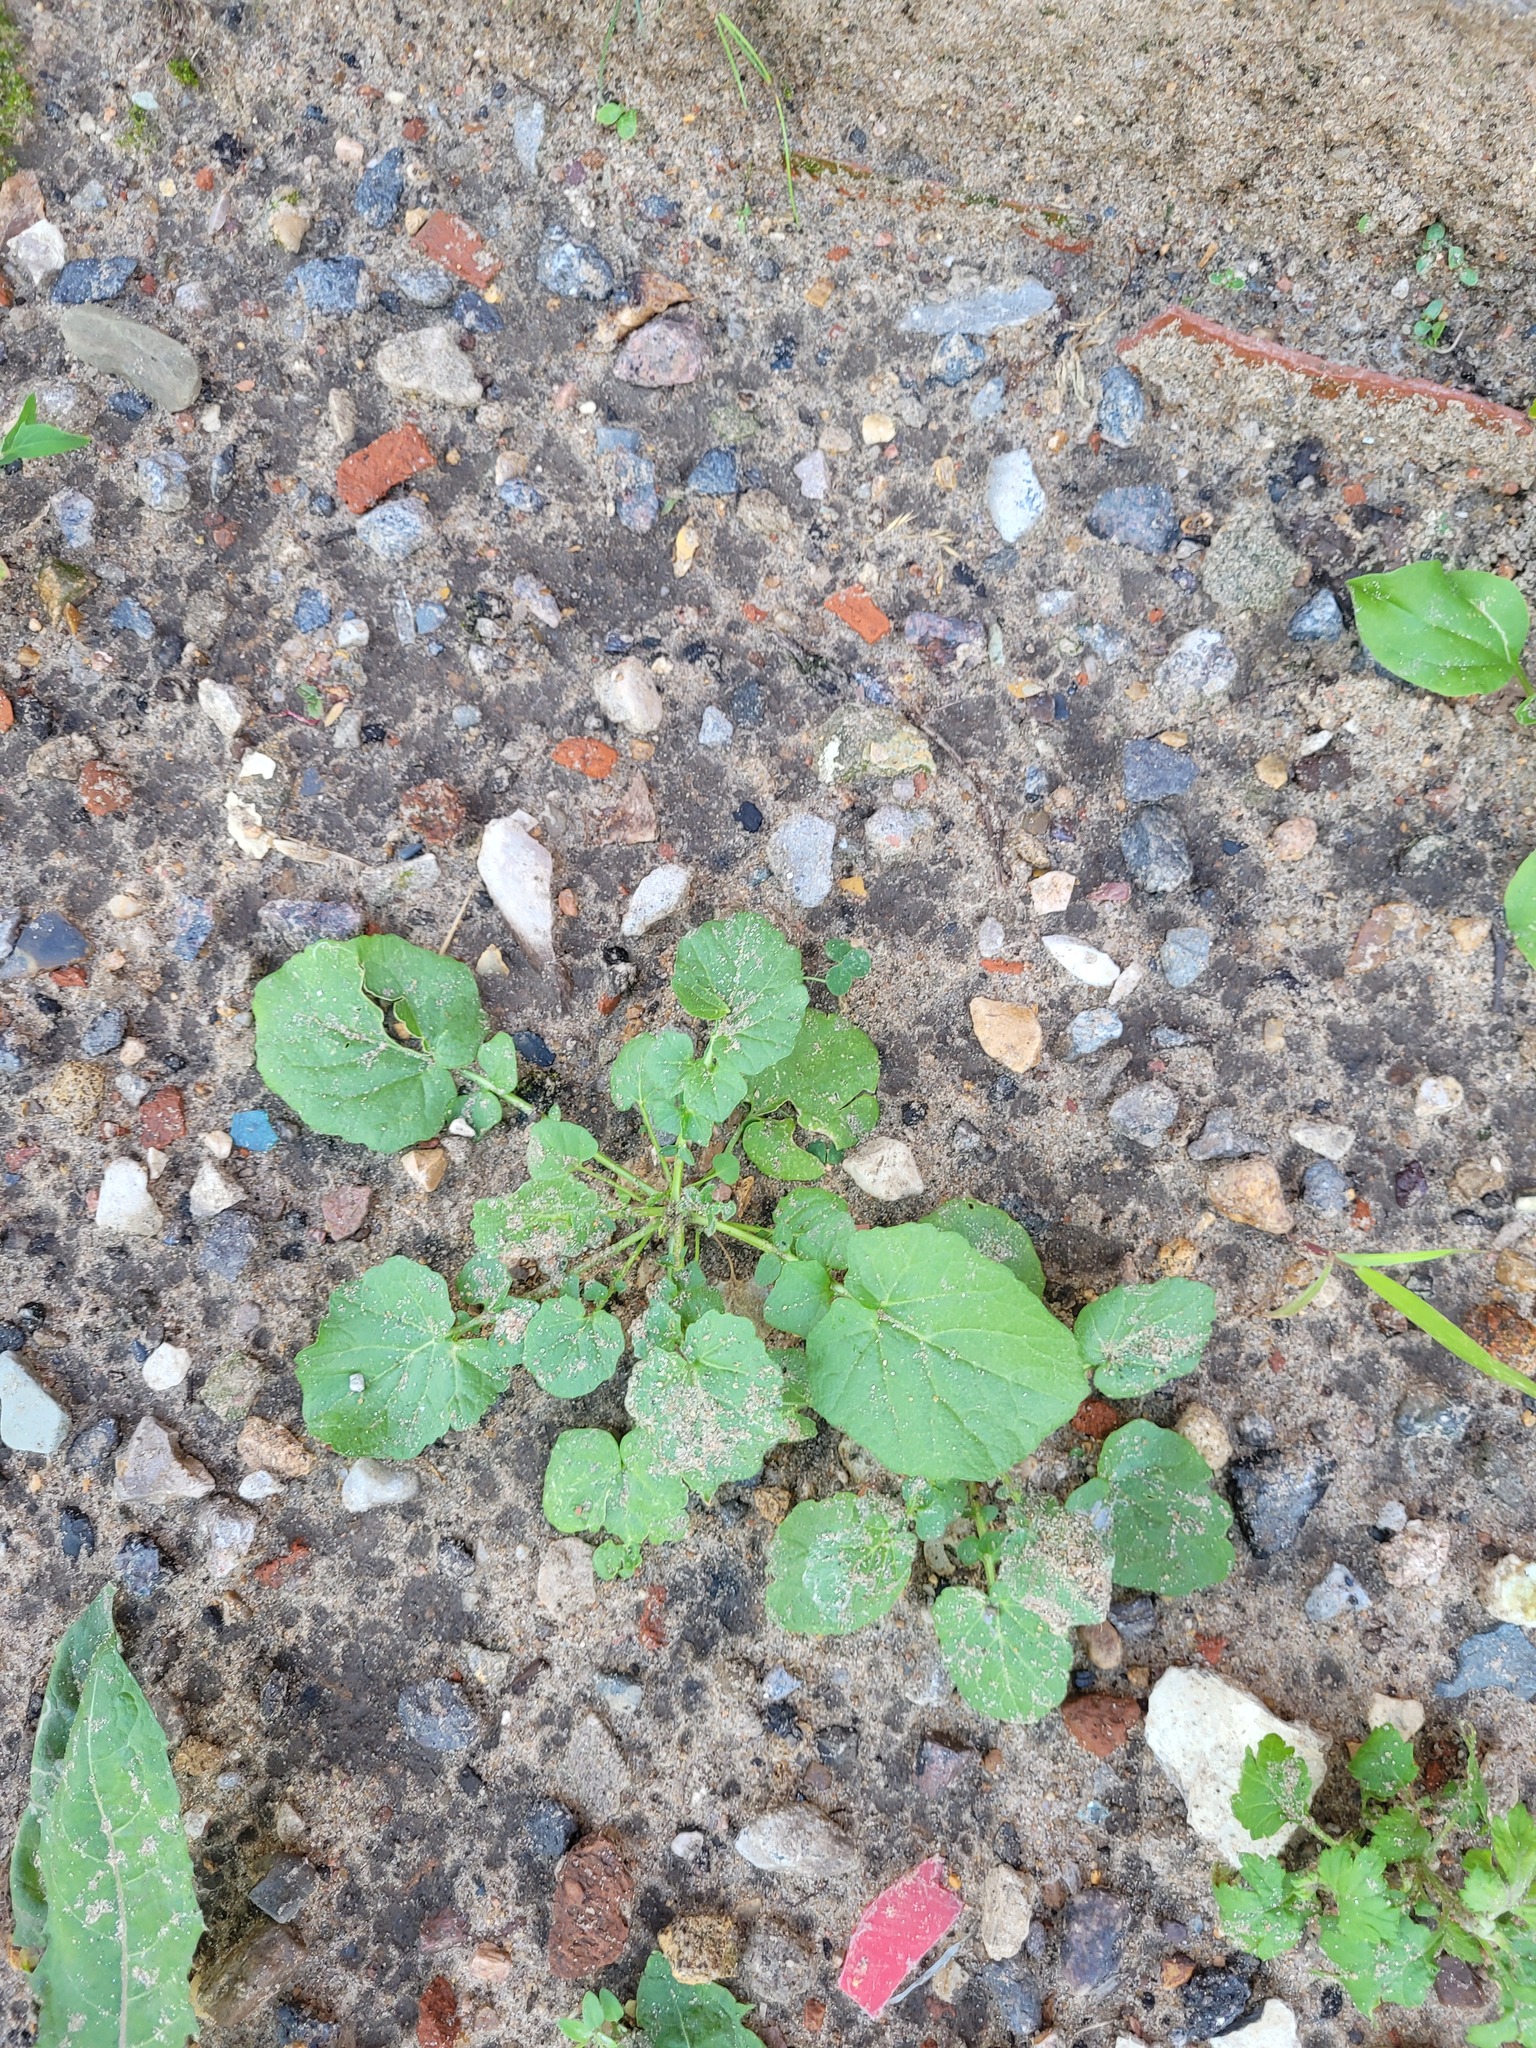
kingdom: Plantae
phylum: Tracheophyta
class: Magnoliopsida
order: Brassicales
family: Brassicaceae
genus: Barbarea
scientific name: Barbarea vulgaris
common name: Cressy-greens
